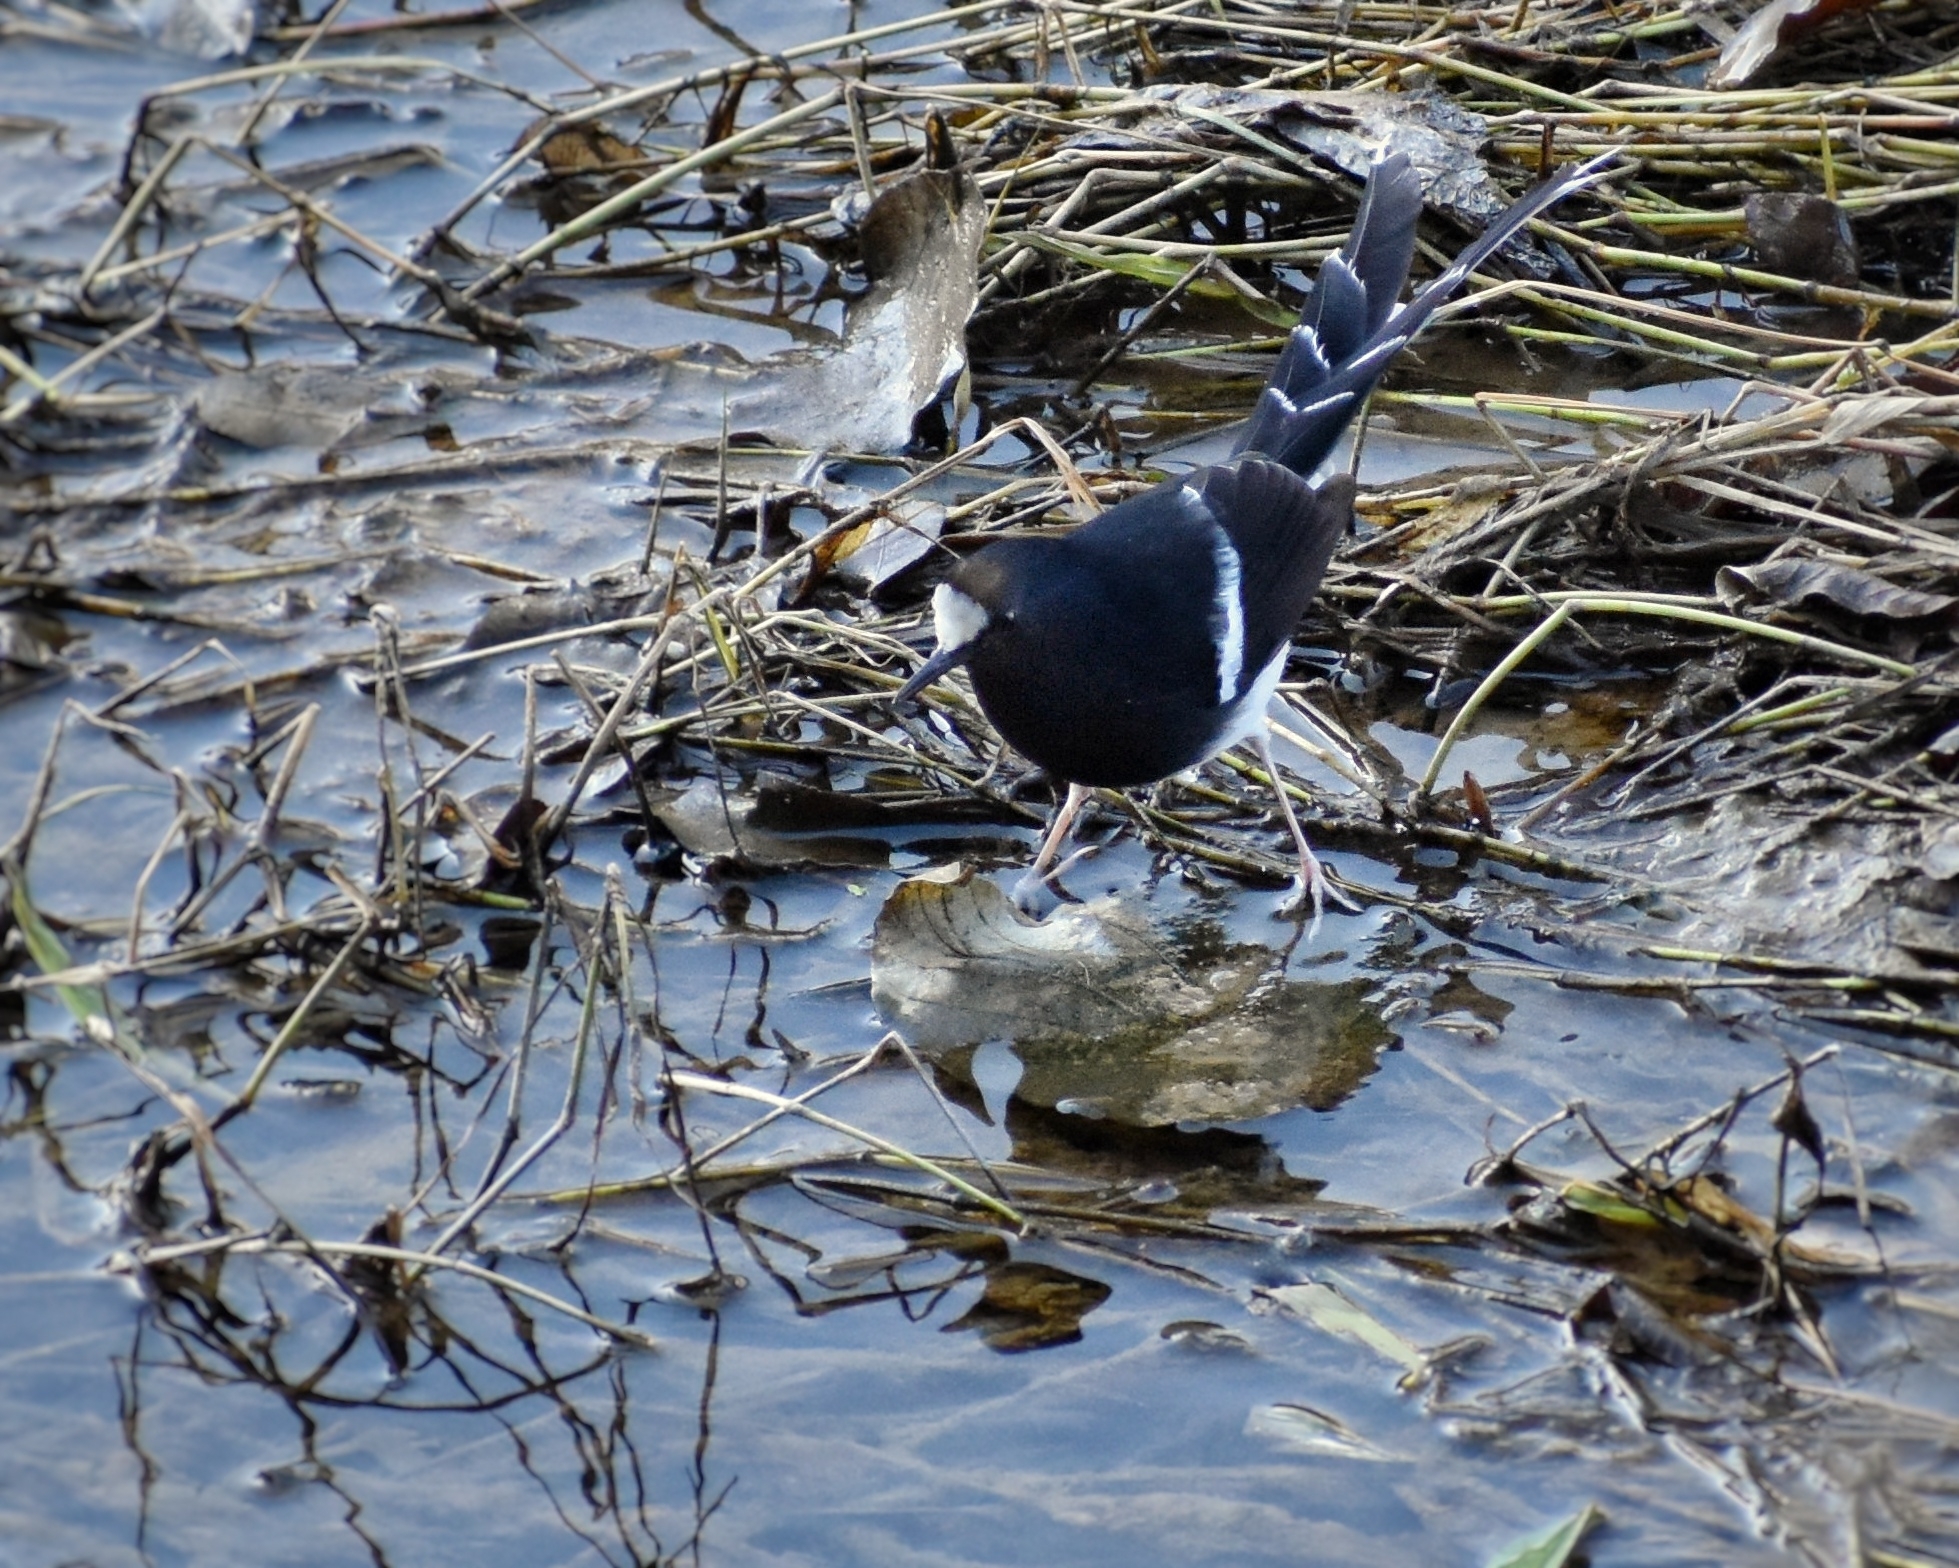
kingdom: Animalia
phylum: Chordata
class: Aves
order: Passeriformes
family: Muscicapidae
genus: Enicurus
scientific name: Enicurus leschenaulti
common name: White-crowned forktail
